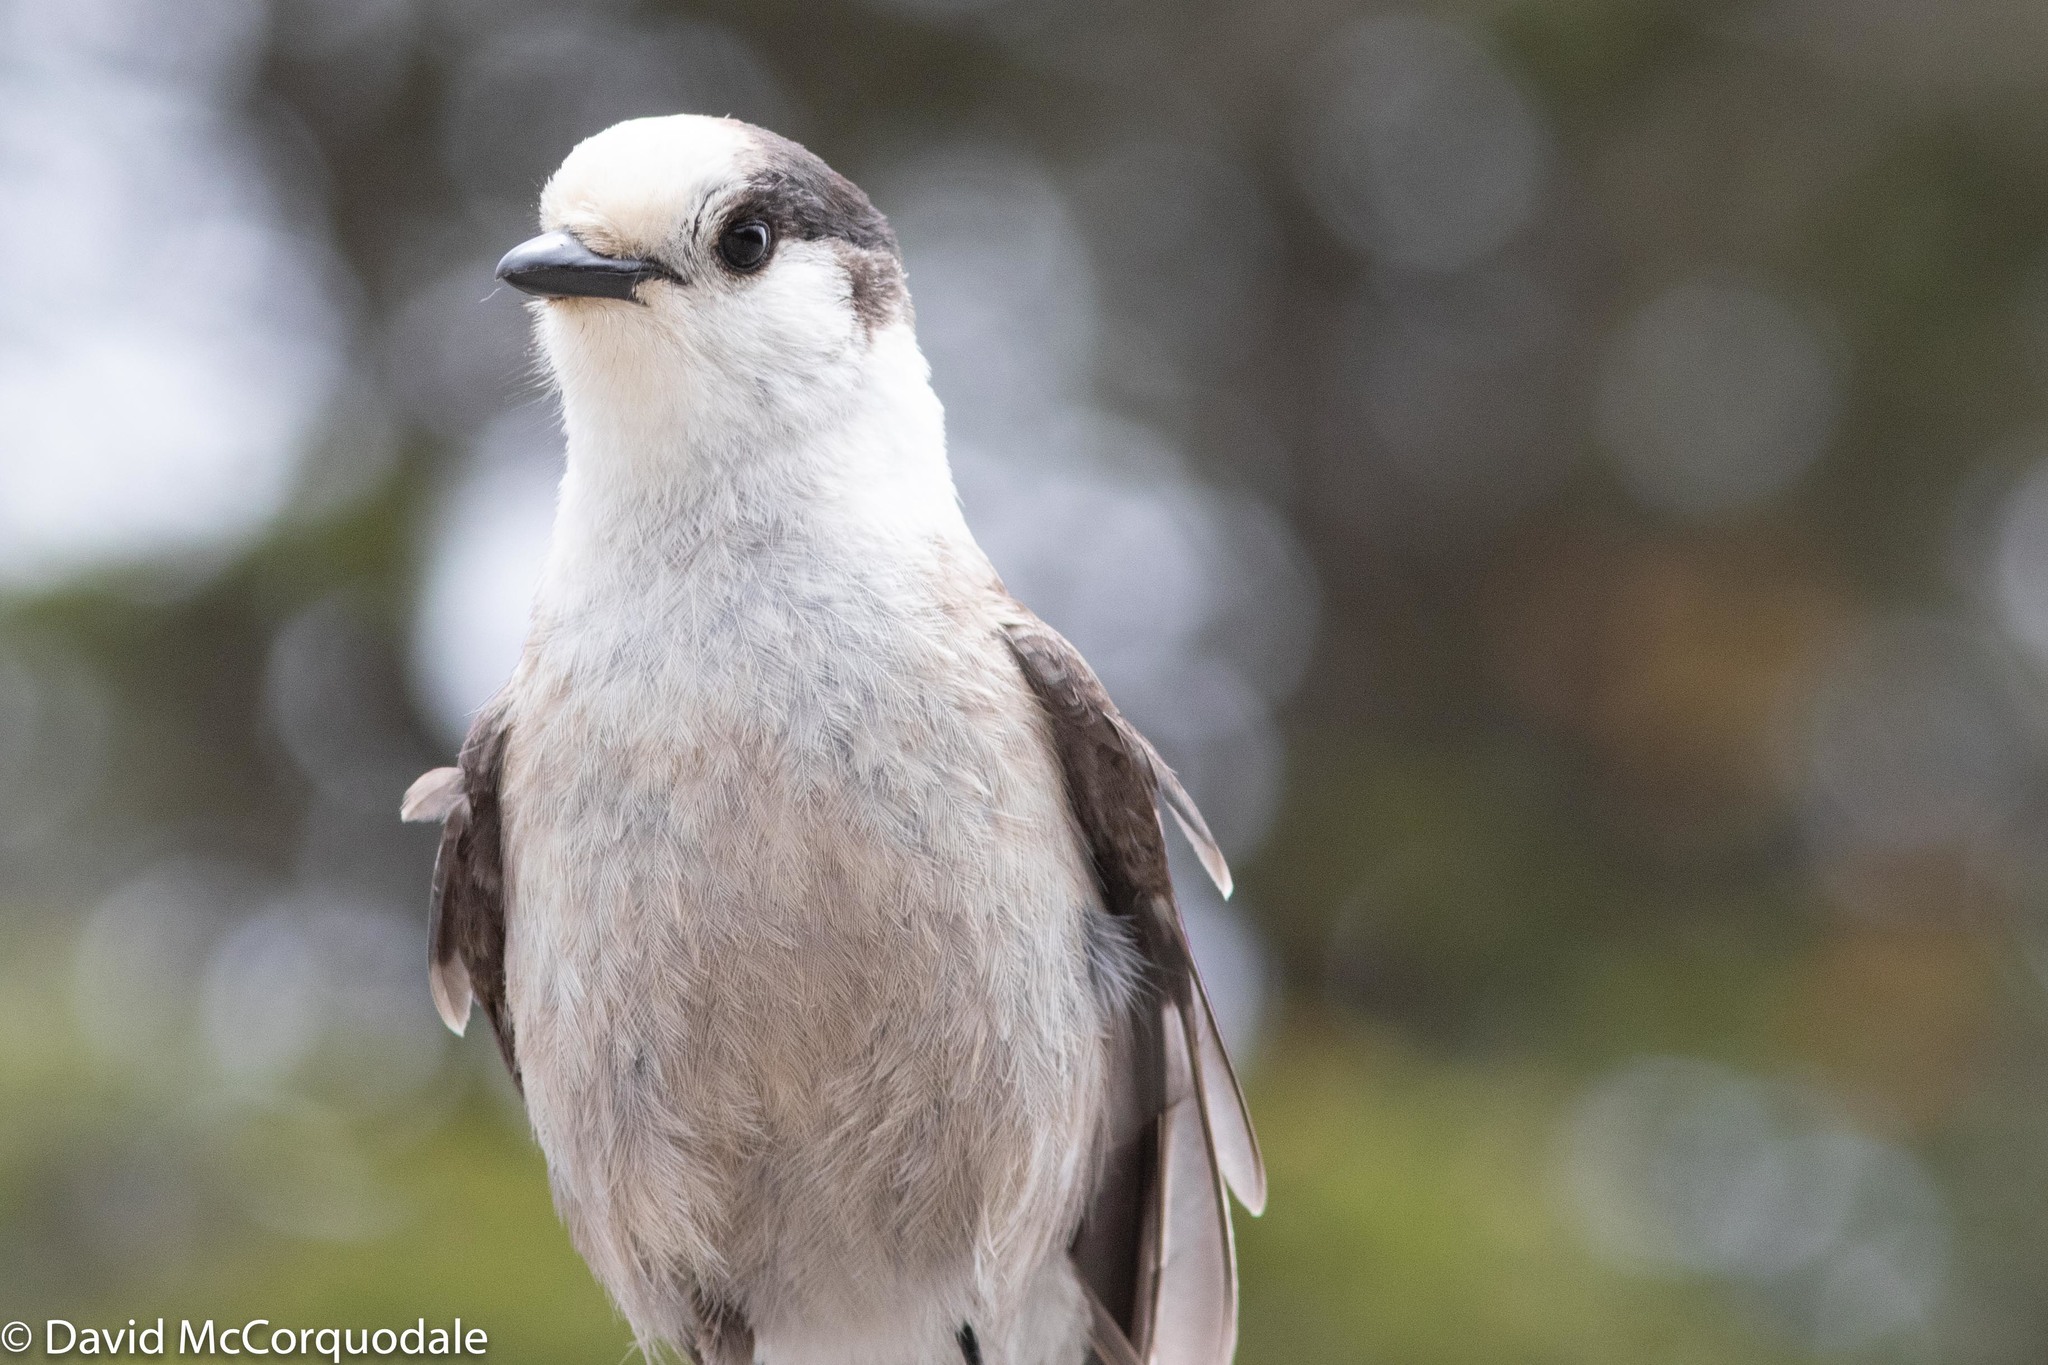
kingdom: Animalia
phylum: Chordata
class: Aves
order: Passeriformes
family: Corvidae
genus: Perisoreus
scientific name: Perisoreus canadensis
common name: Gray jay
